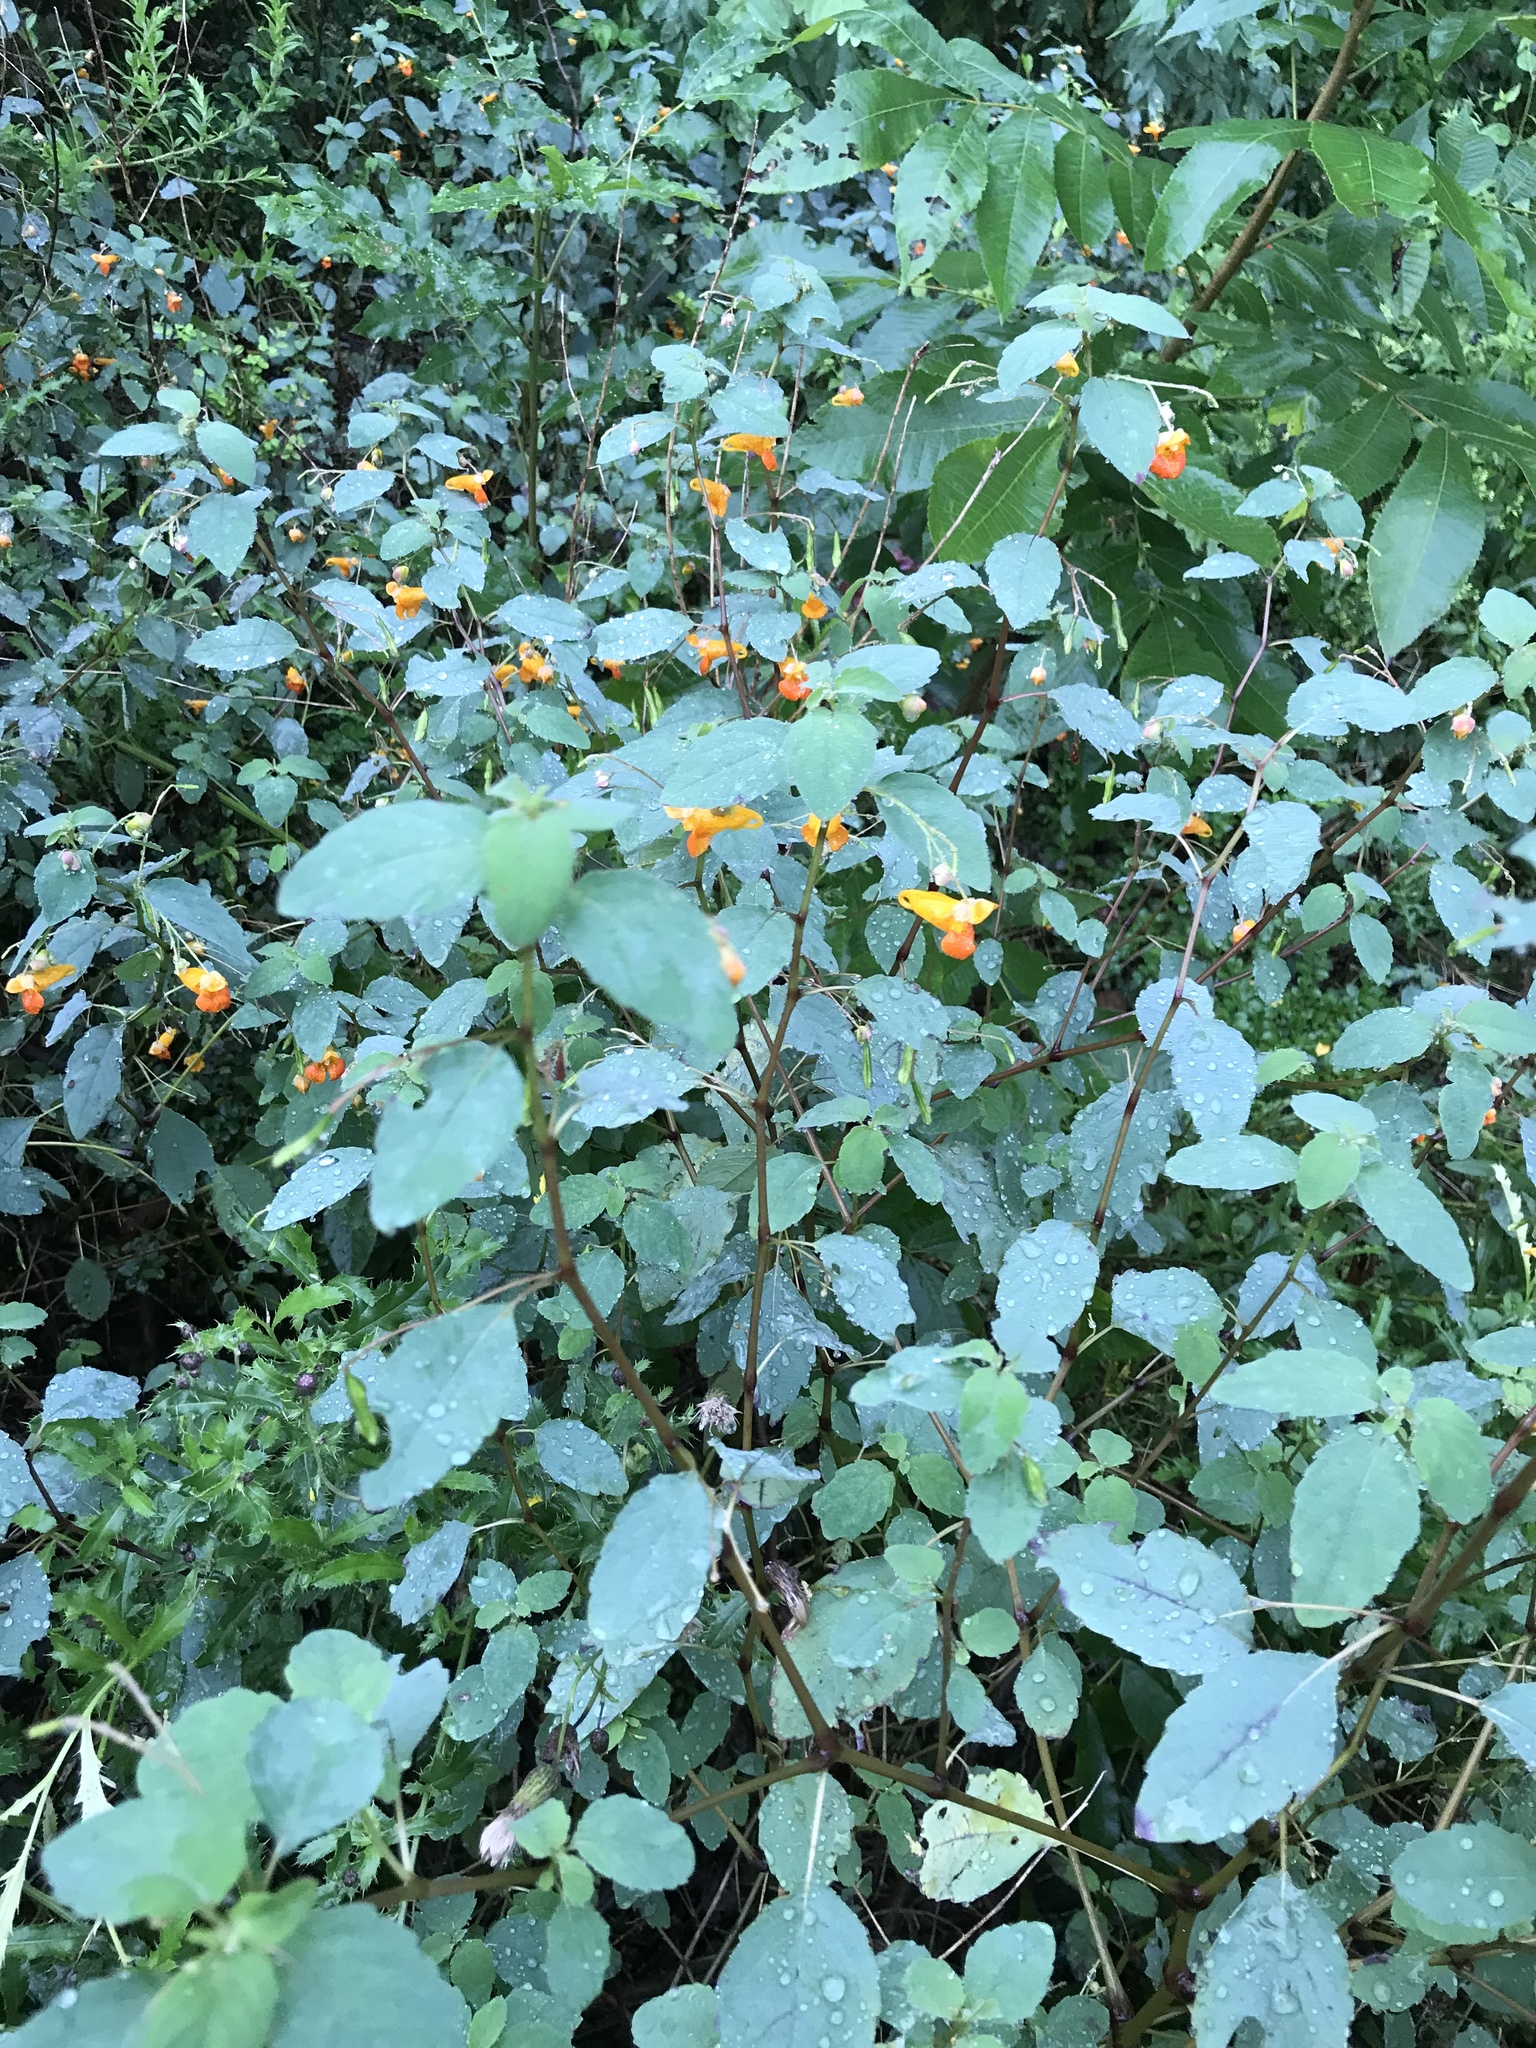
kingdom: Plantae
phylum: Tracheophyta
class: Magnoliopsida
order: Ericales
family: Balsaminaceae
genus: Impatiens
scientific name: Impatiens capensis
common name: Orange balsam
